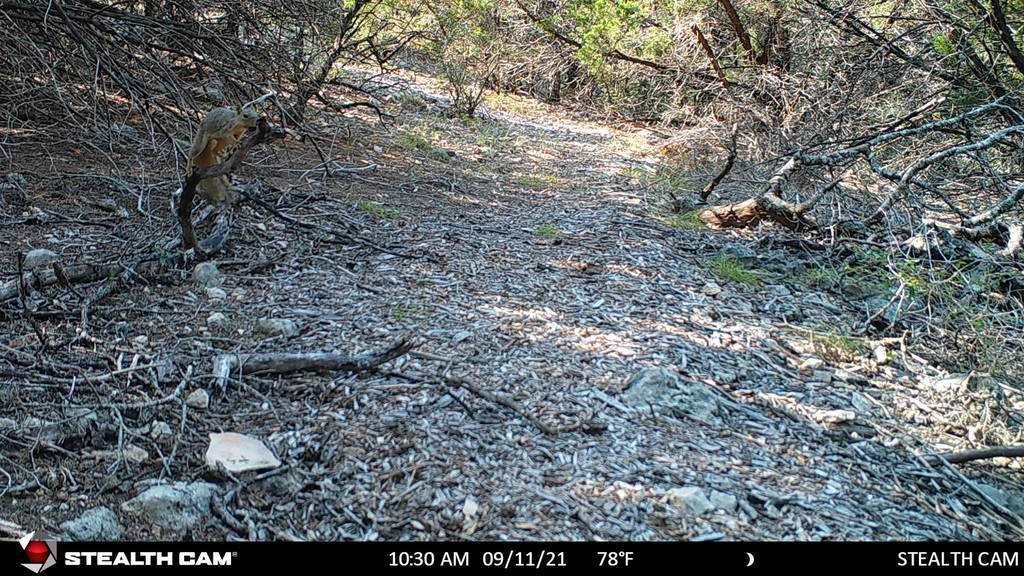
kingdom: Animalia
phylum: Chordata
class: Mammalia
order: Rodentia
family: Sciuridae
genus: Sciurus
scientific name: Sciurus niger
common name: Fox squirrel
